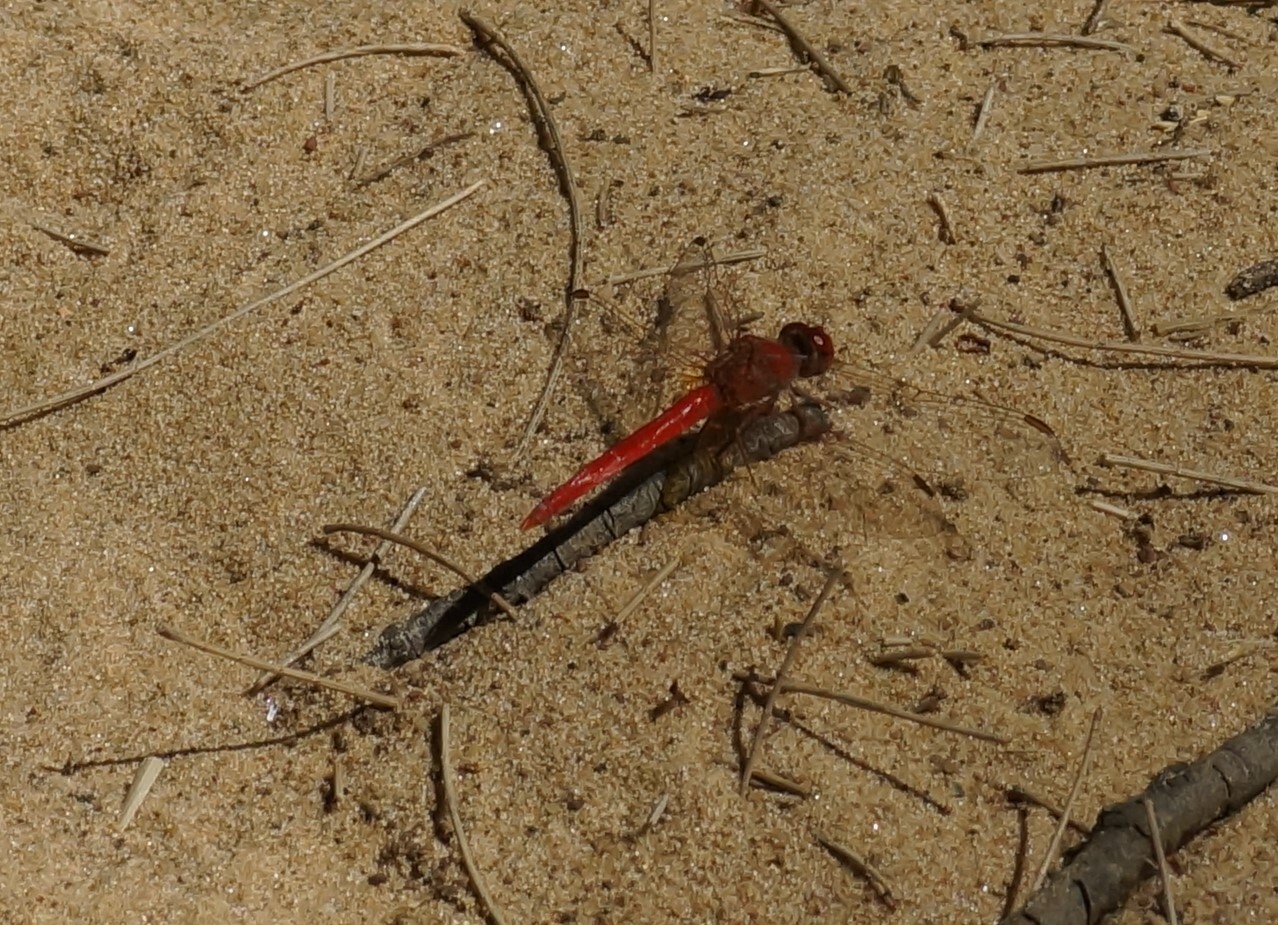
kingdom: Animalia
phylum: Arthropoda
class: Insecta
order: Odonata
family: Libellulidae
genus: Diplacodes
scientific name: Diplacodes haematodes
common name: Scarlet percher
